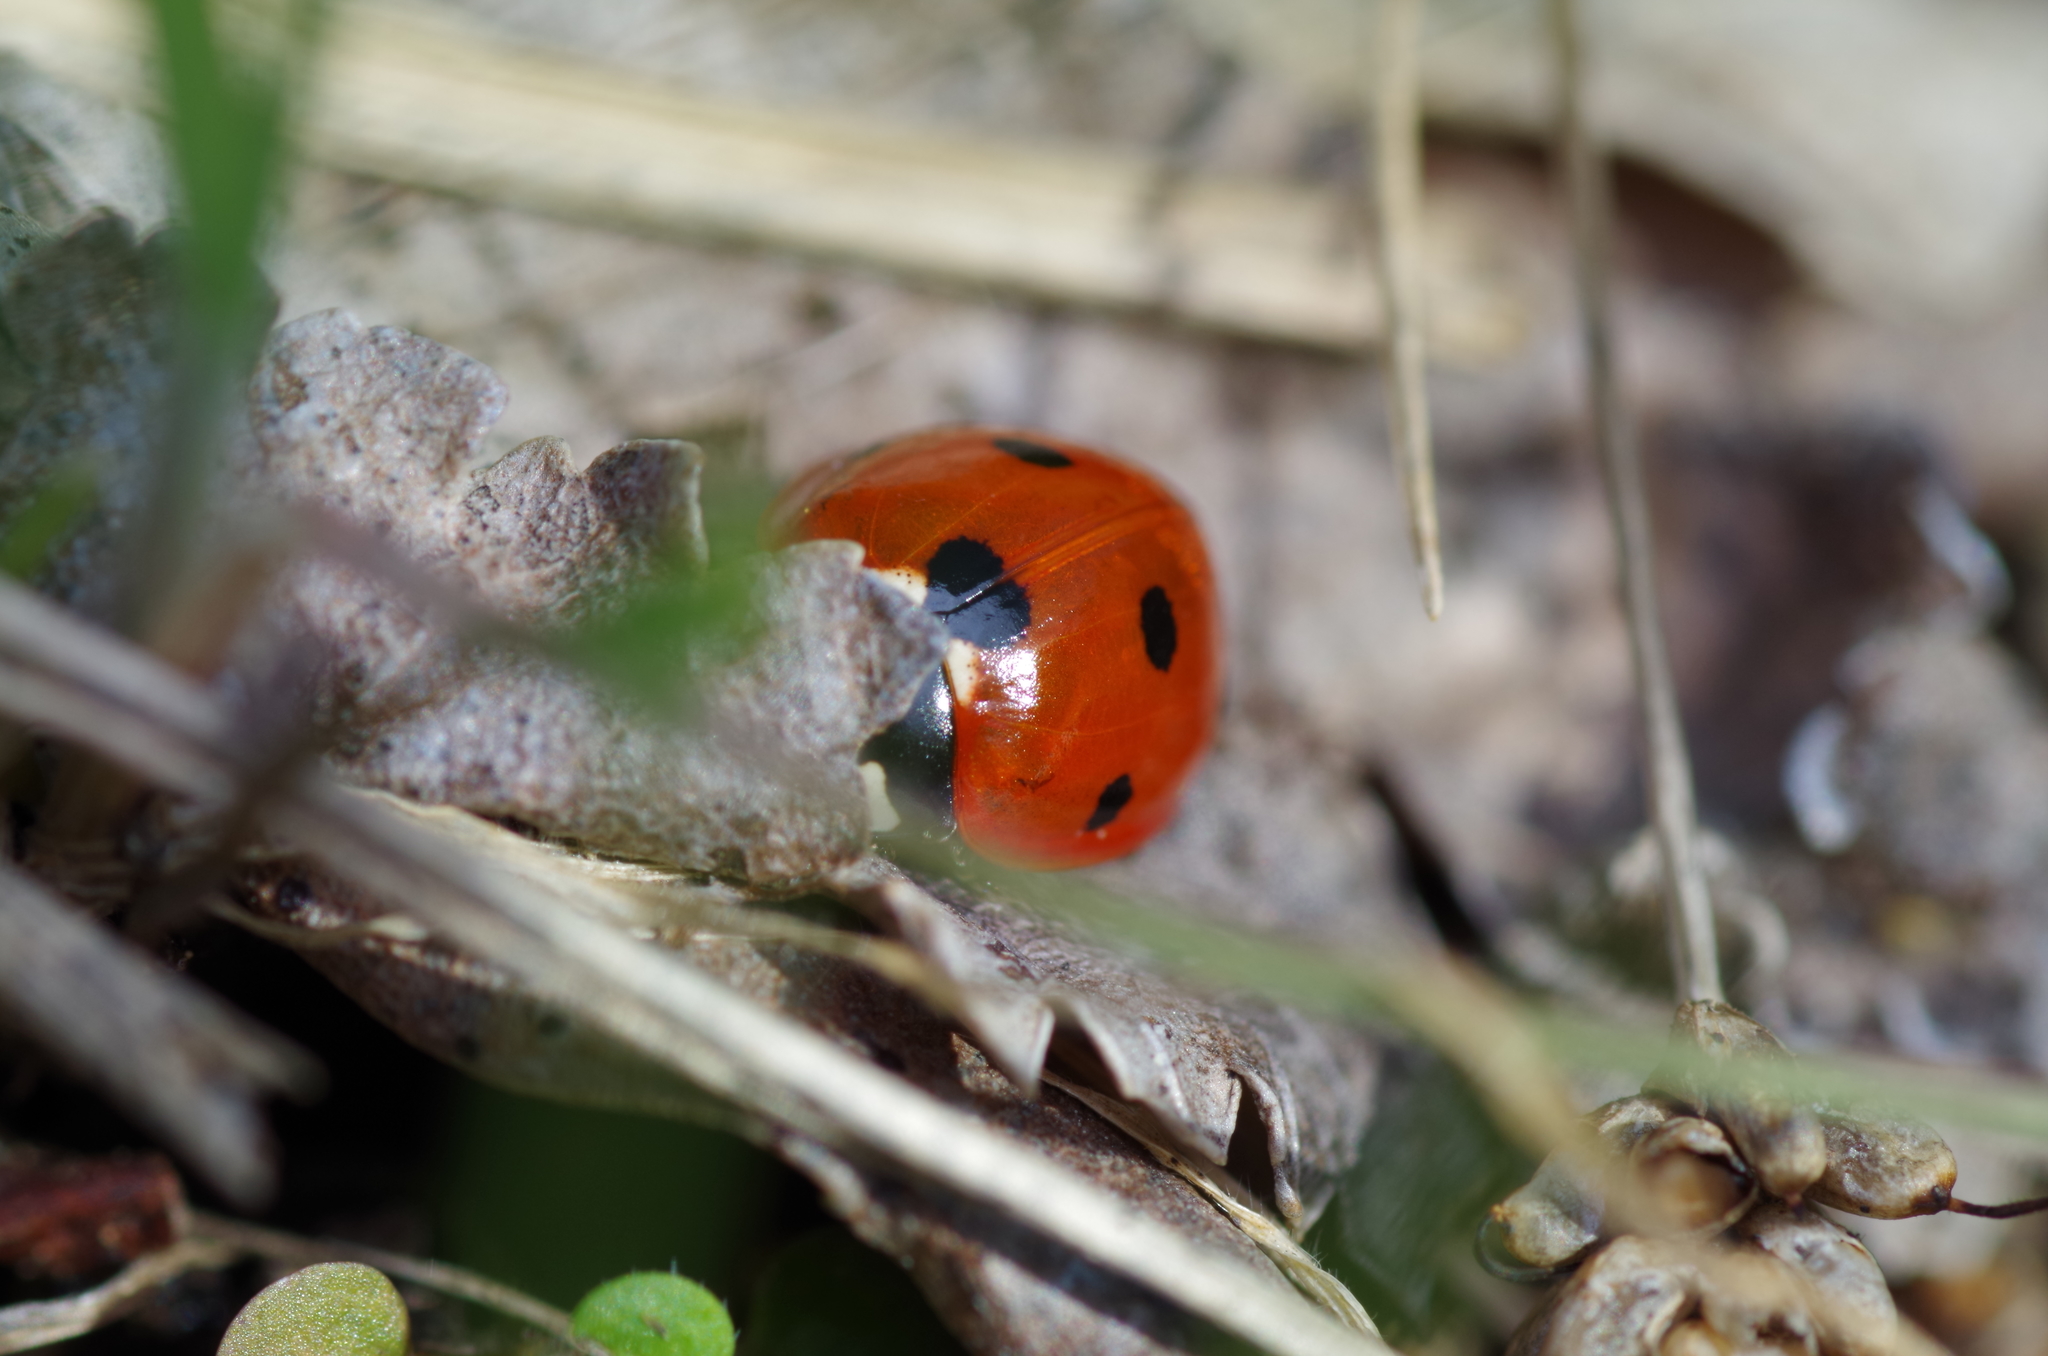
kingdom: Animalia
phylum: Arthropoda
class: Insecta
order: Coleoptera
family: Coccinellidae
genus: Coccinella
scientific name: Coccinella septempunctata
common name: Sevenspotted lady beetle
